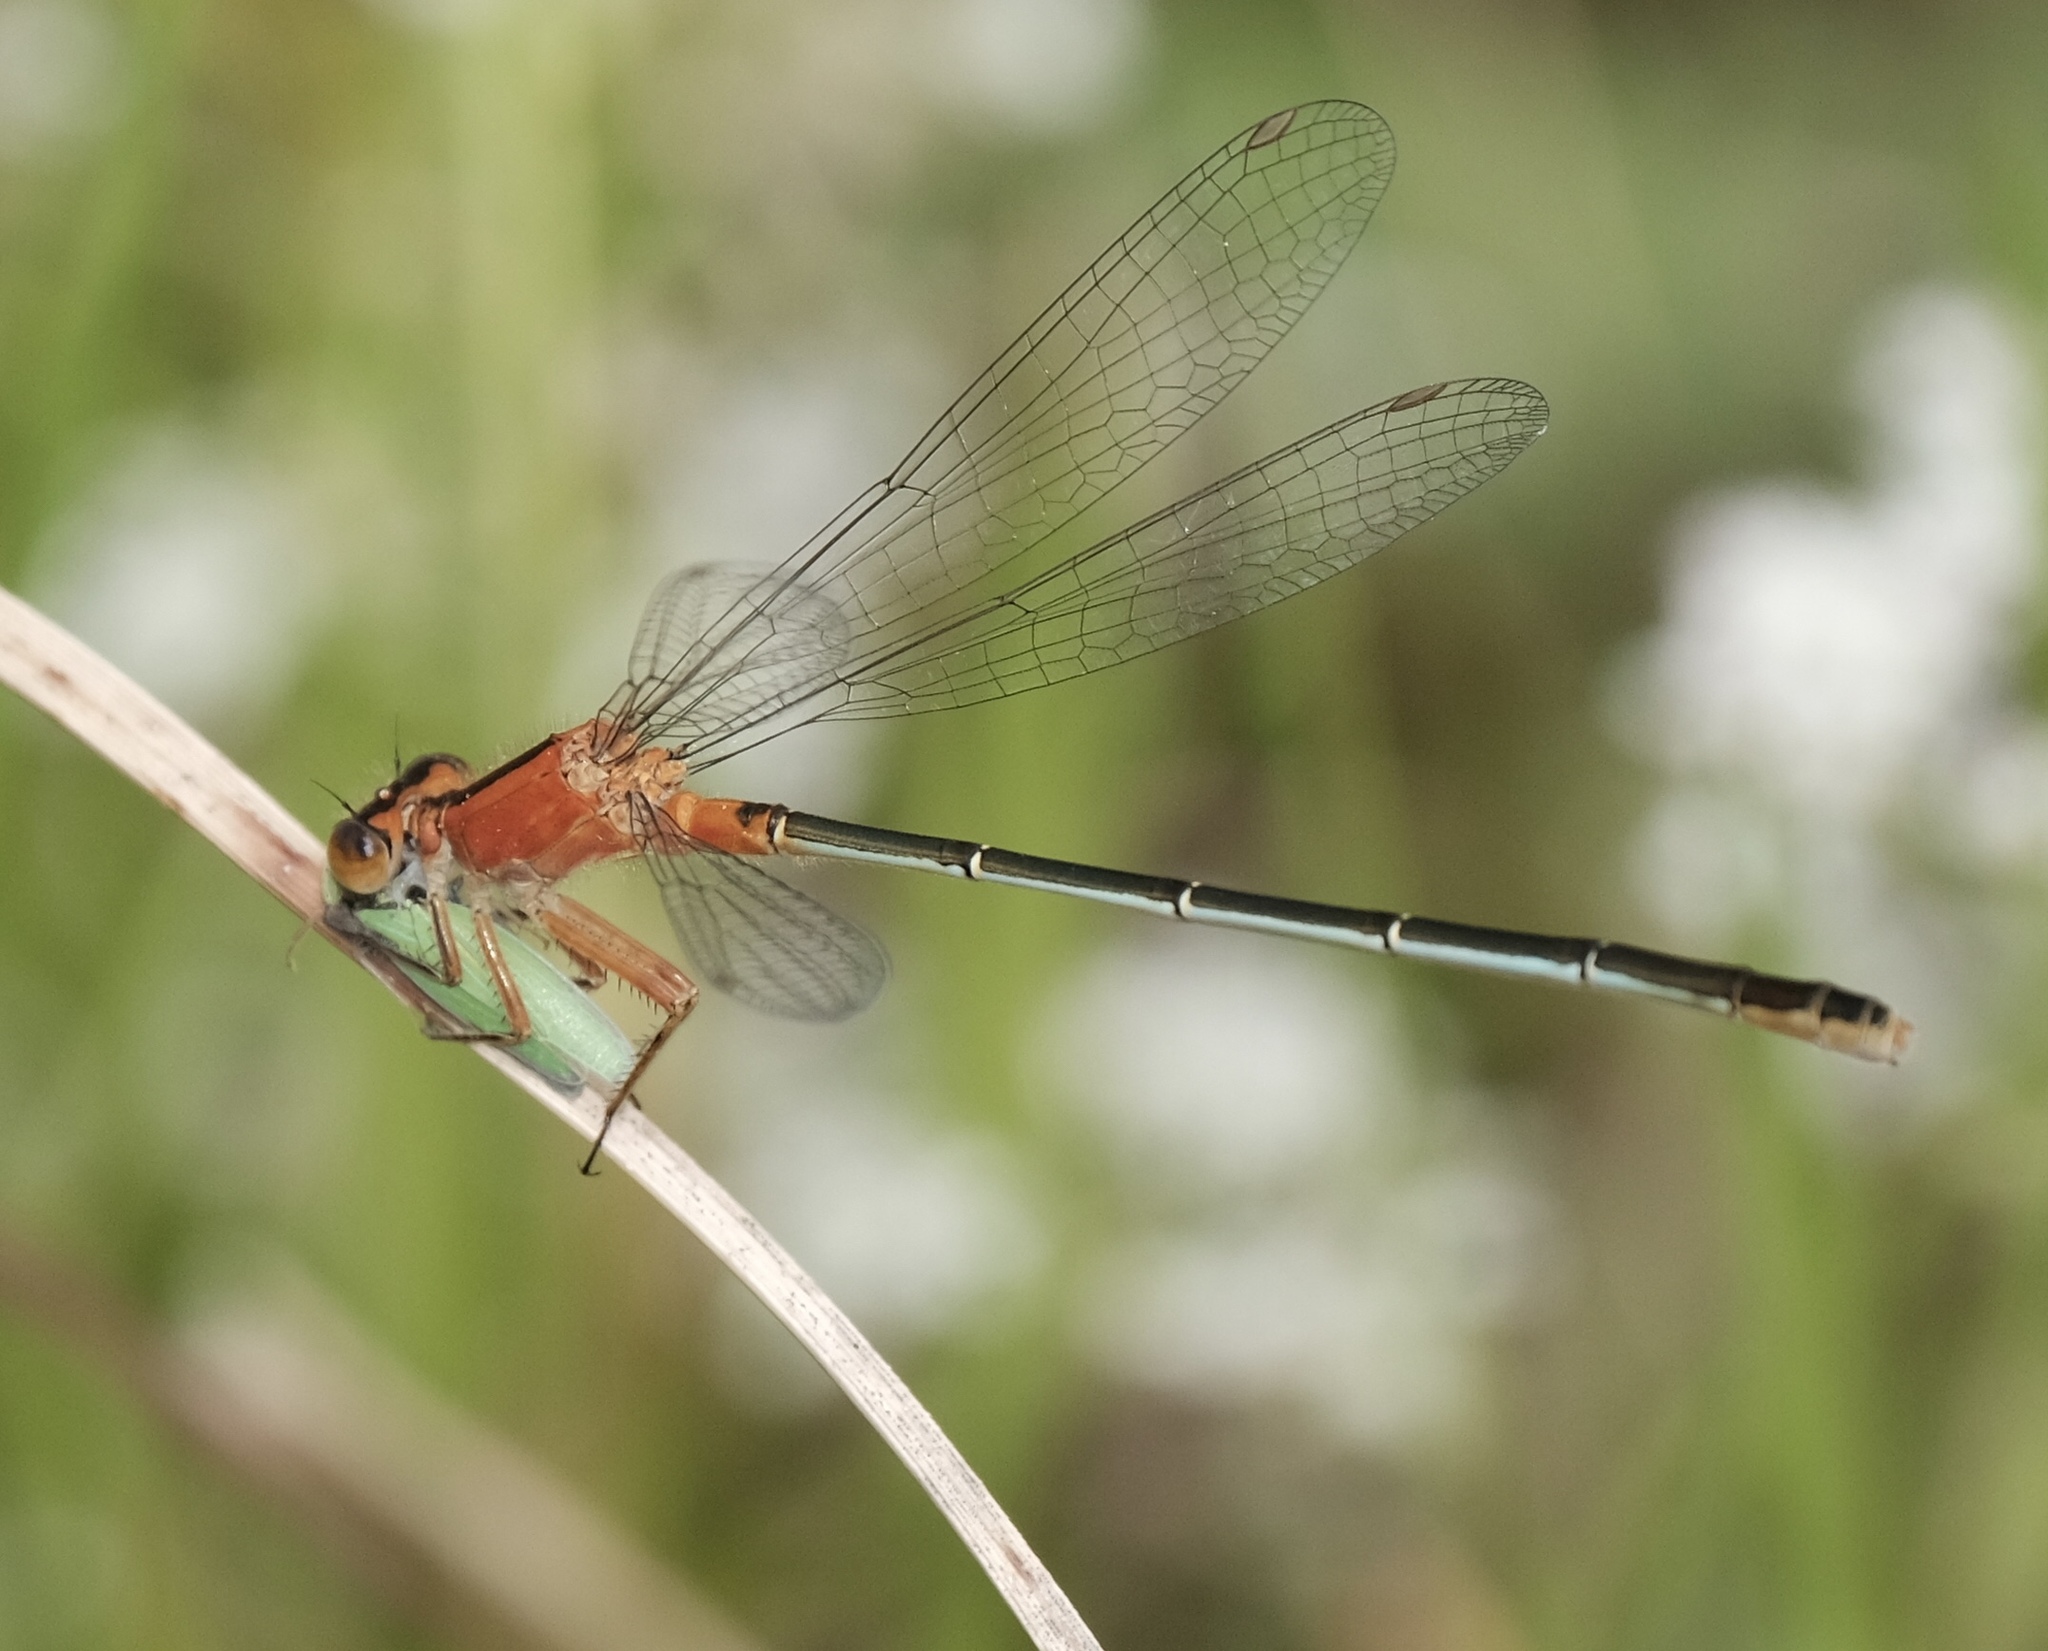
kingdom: Animalia
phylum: Arthropoda
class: Insecta
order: Odonata
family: Coenagrionidae
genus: Ischnura
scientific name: Ischnura ramburii
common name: Rambur's forktail
